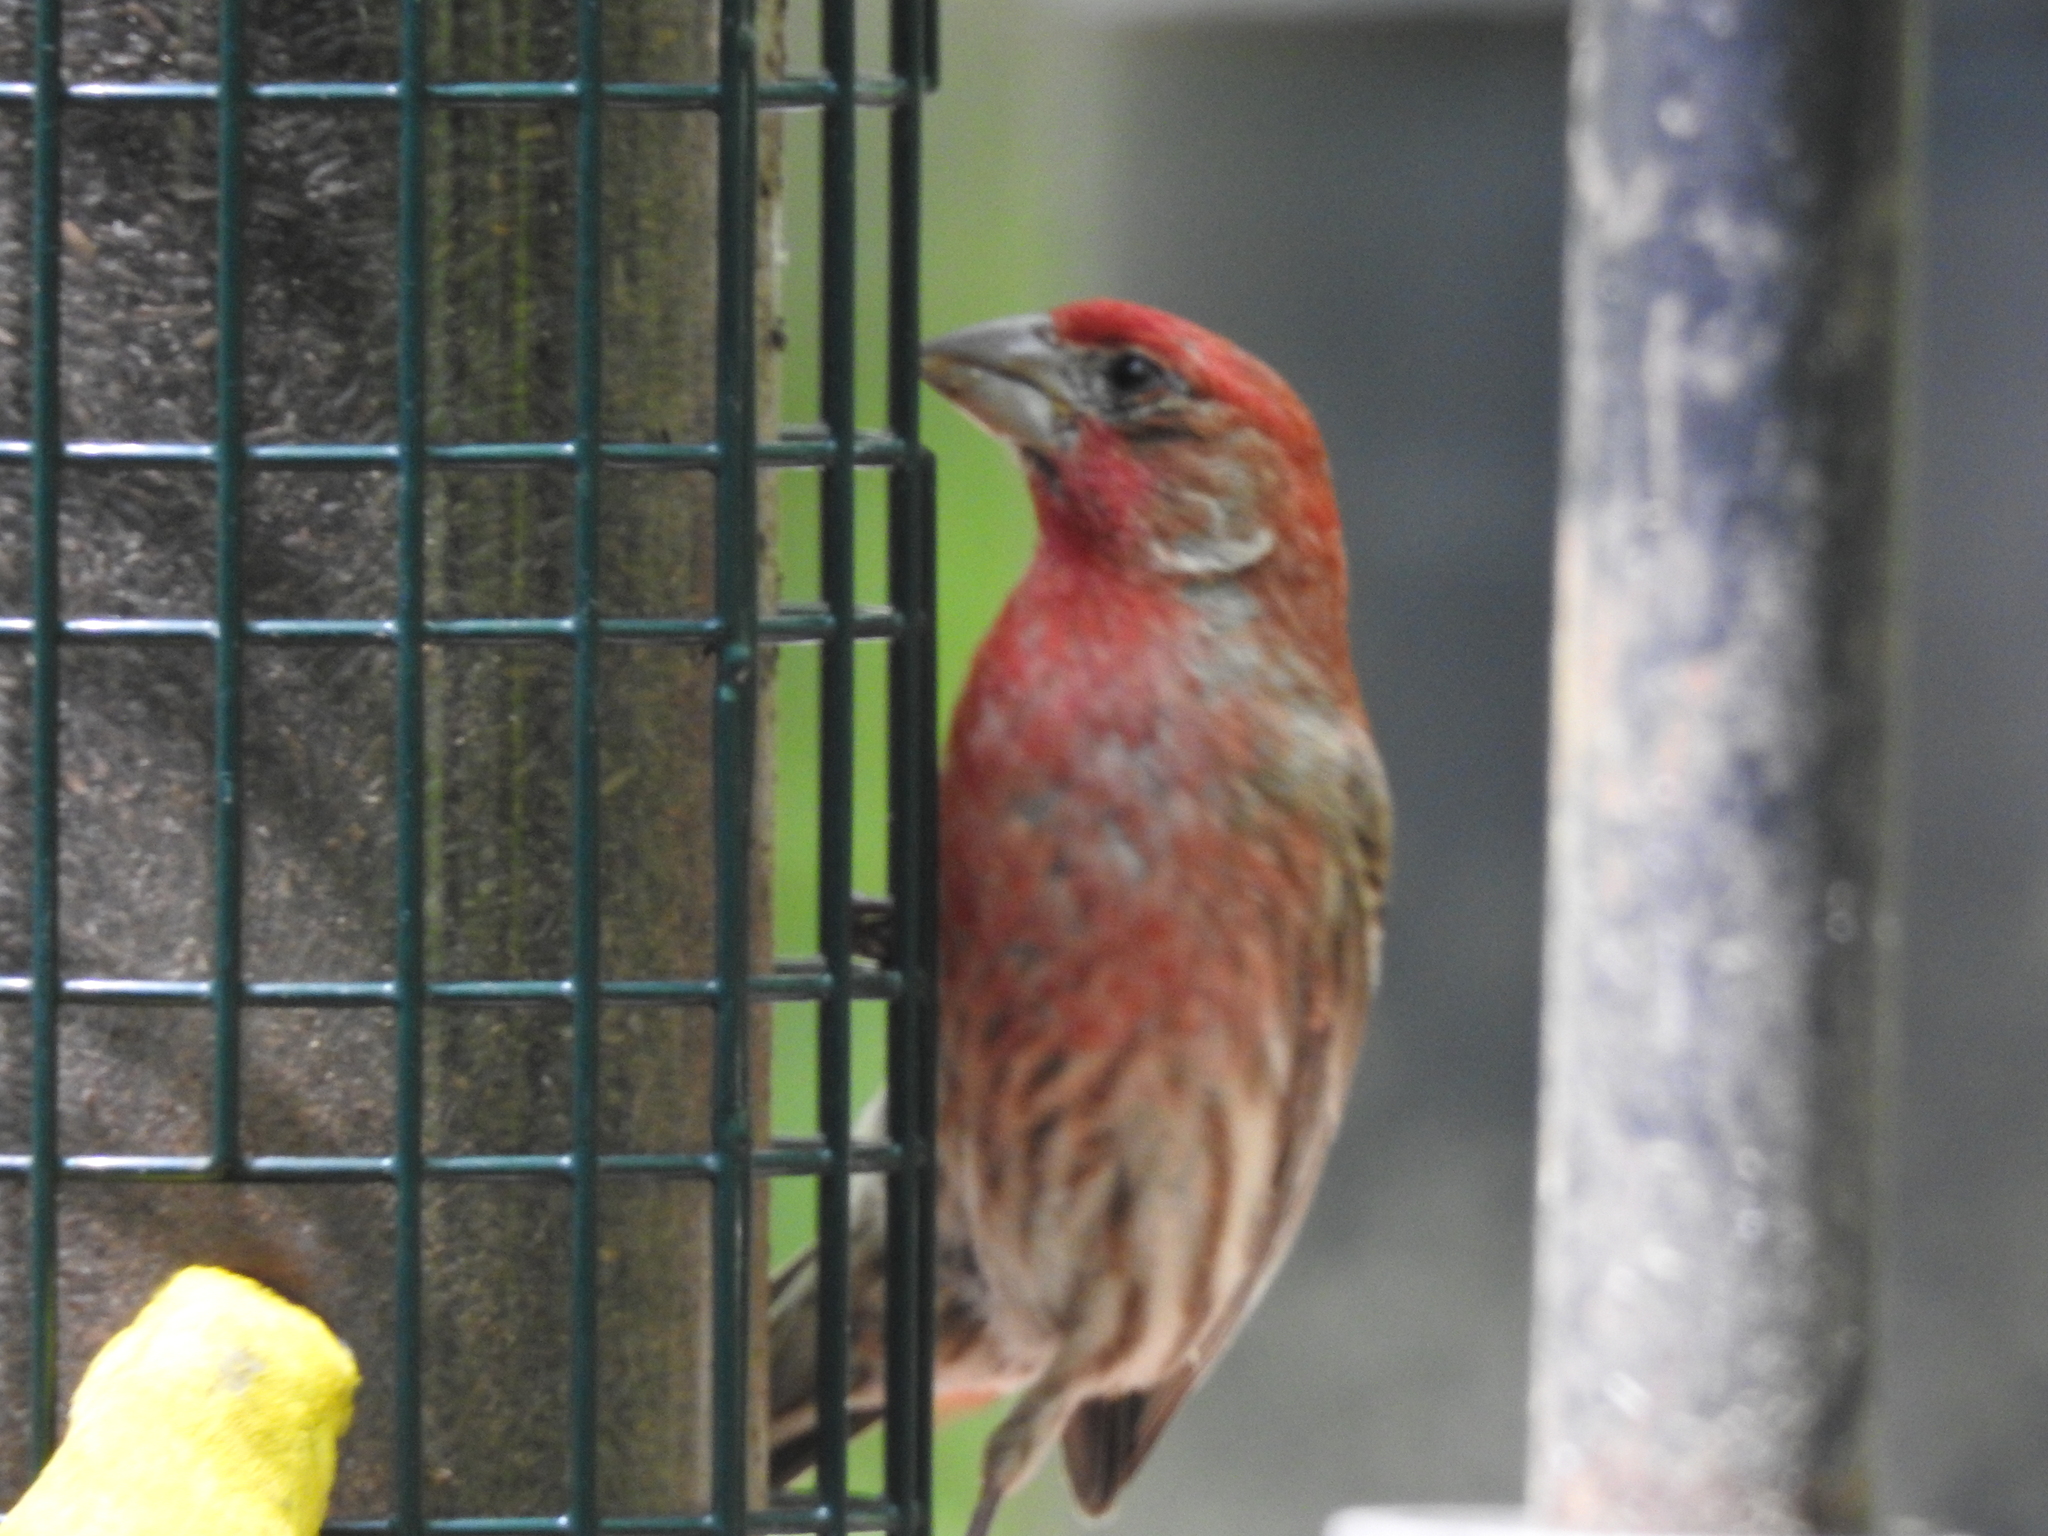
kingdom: Animalia
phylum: Chordata
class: Aves
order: Passeriformes
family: Fringillidae
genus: Haemorhous
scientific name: Haemorhous mexicanus
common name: House finch
